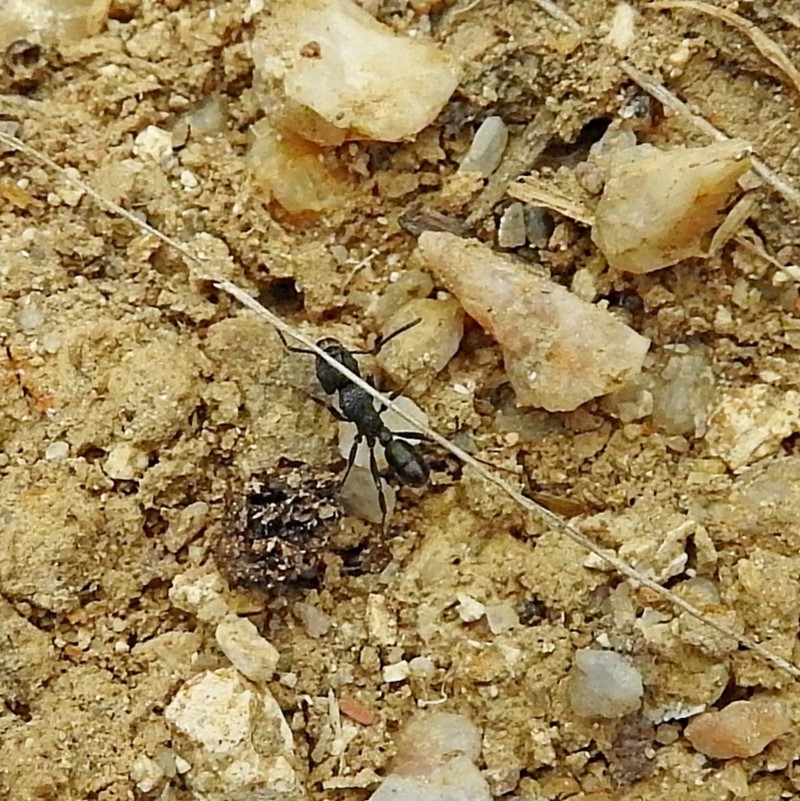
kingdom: Animalia
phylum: Arthropoda
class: Insecta
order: Hymenoptera
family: Formicidae
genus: Rhytidoponera
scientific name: Rhytidoponera metallica
